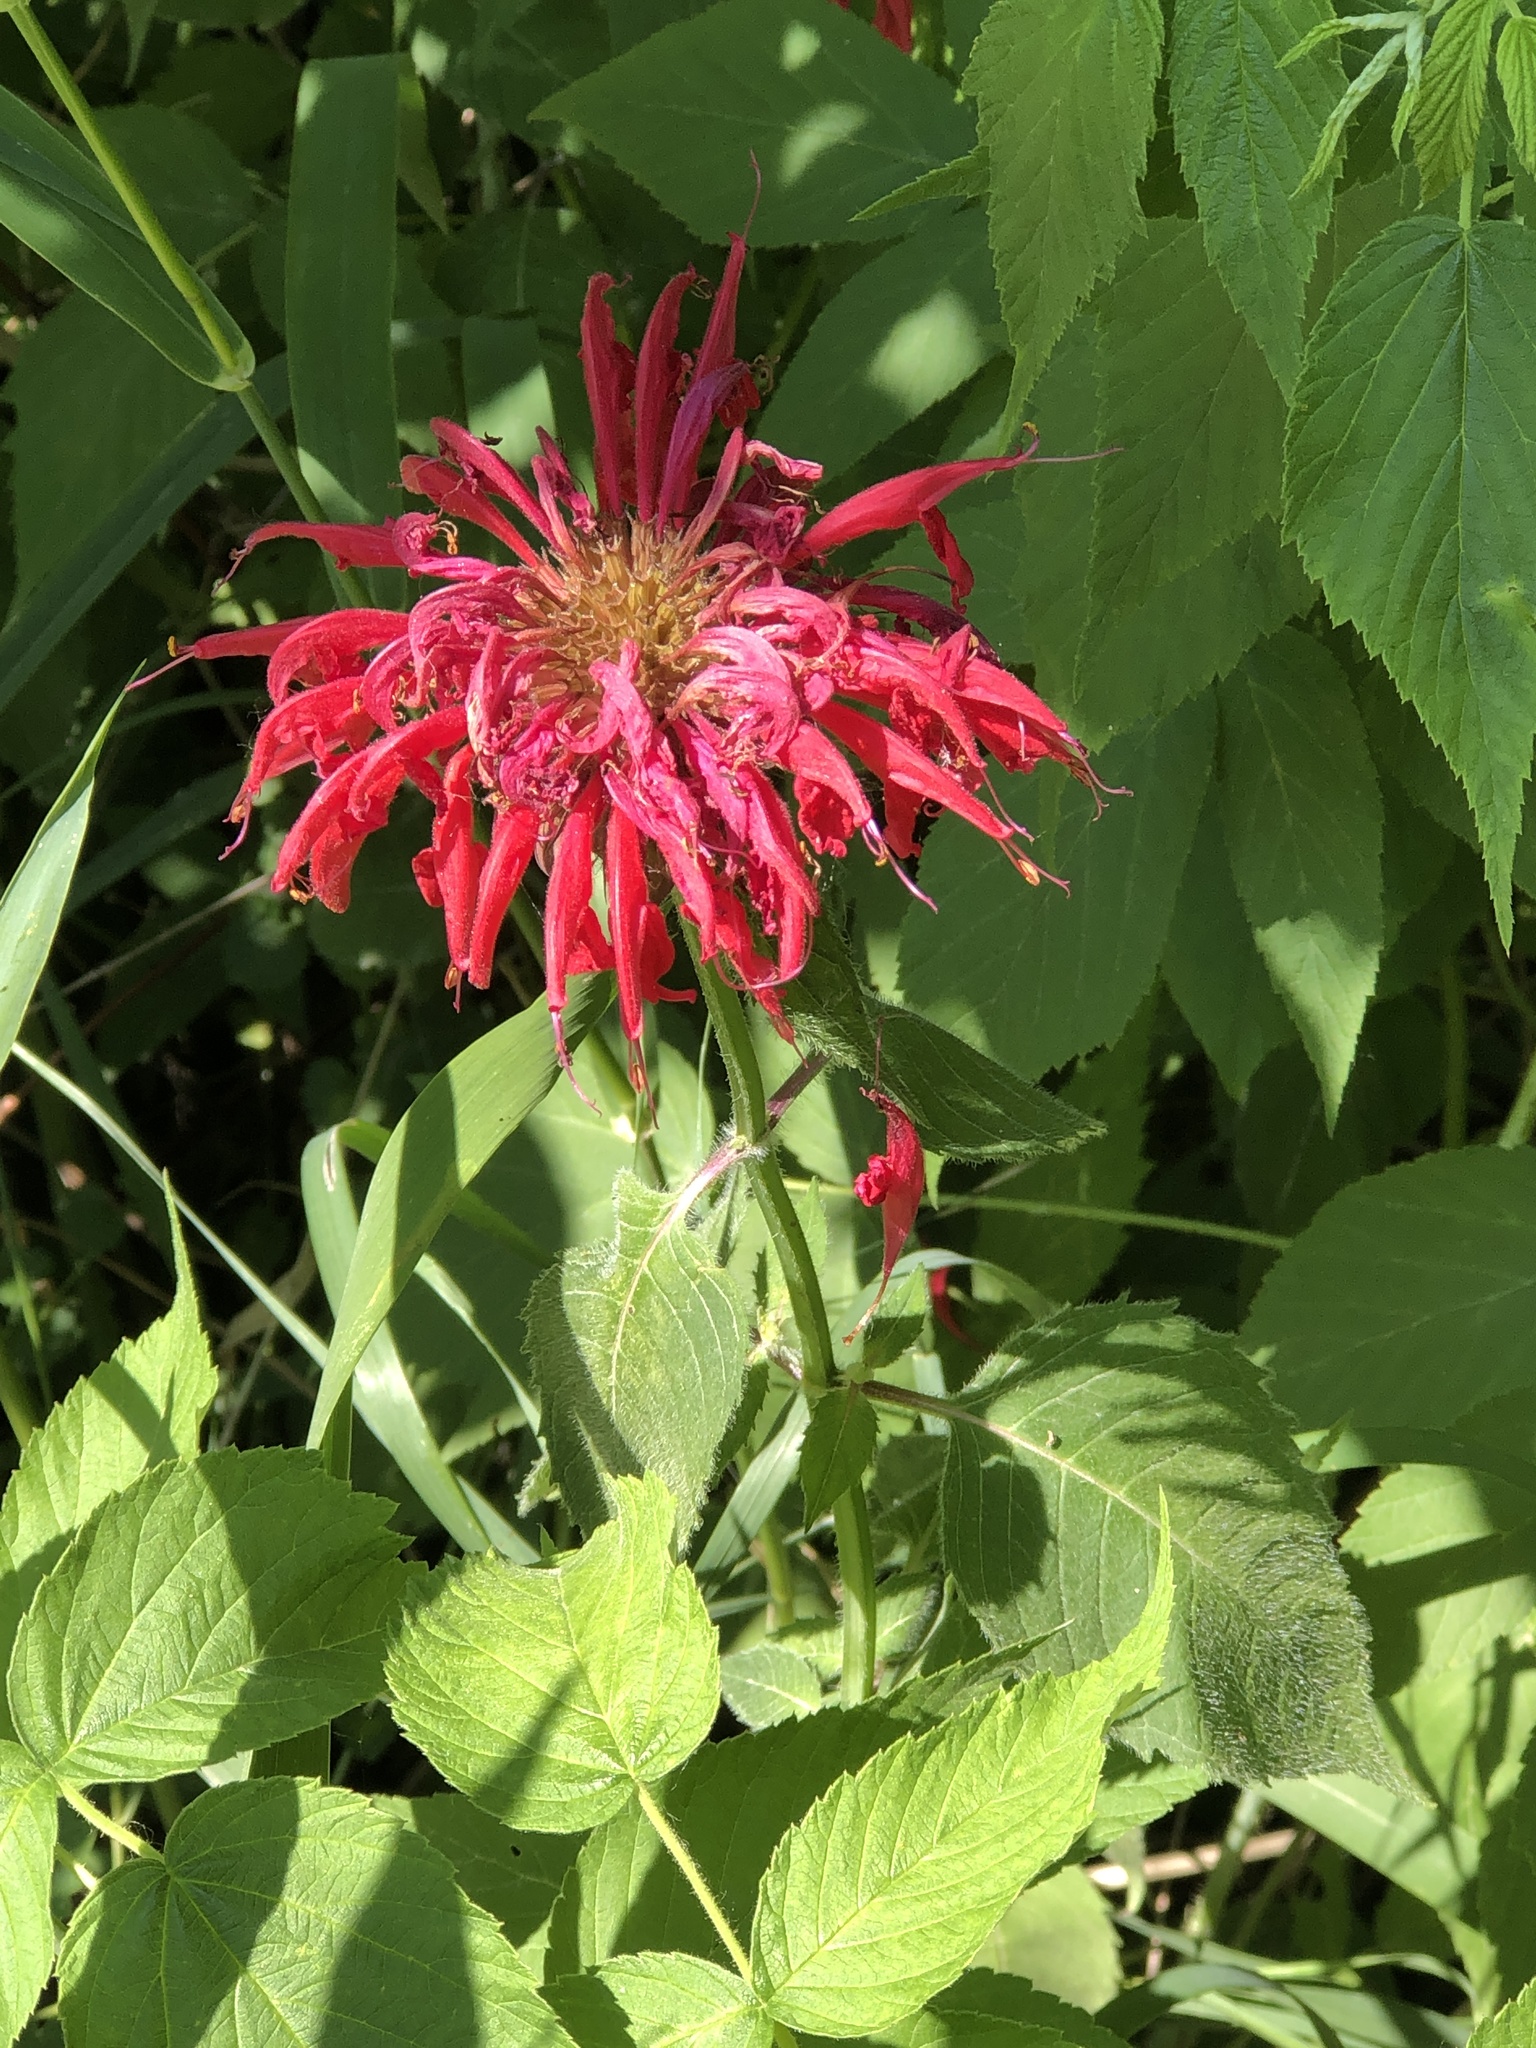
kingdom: Plantae
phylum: Tracheophyta
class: Magnoliopsida
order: Lamiales
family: Lamiaceae
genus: Monarda
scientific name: Monarda didyma
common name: Beebalm
